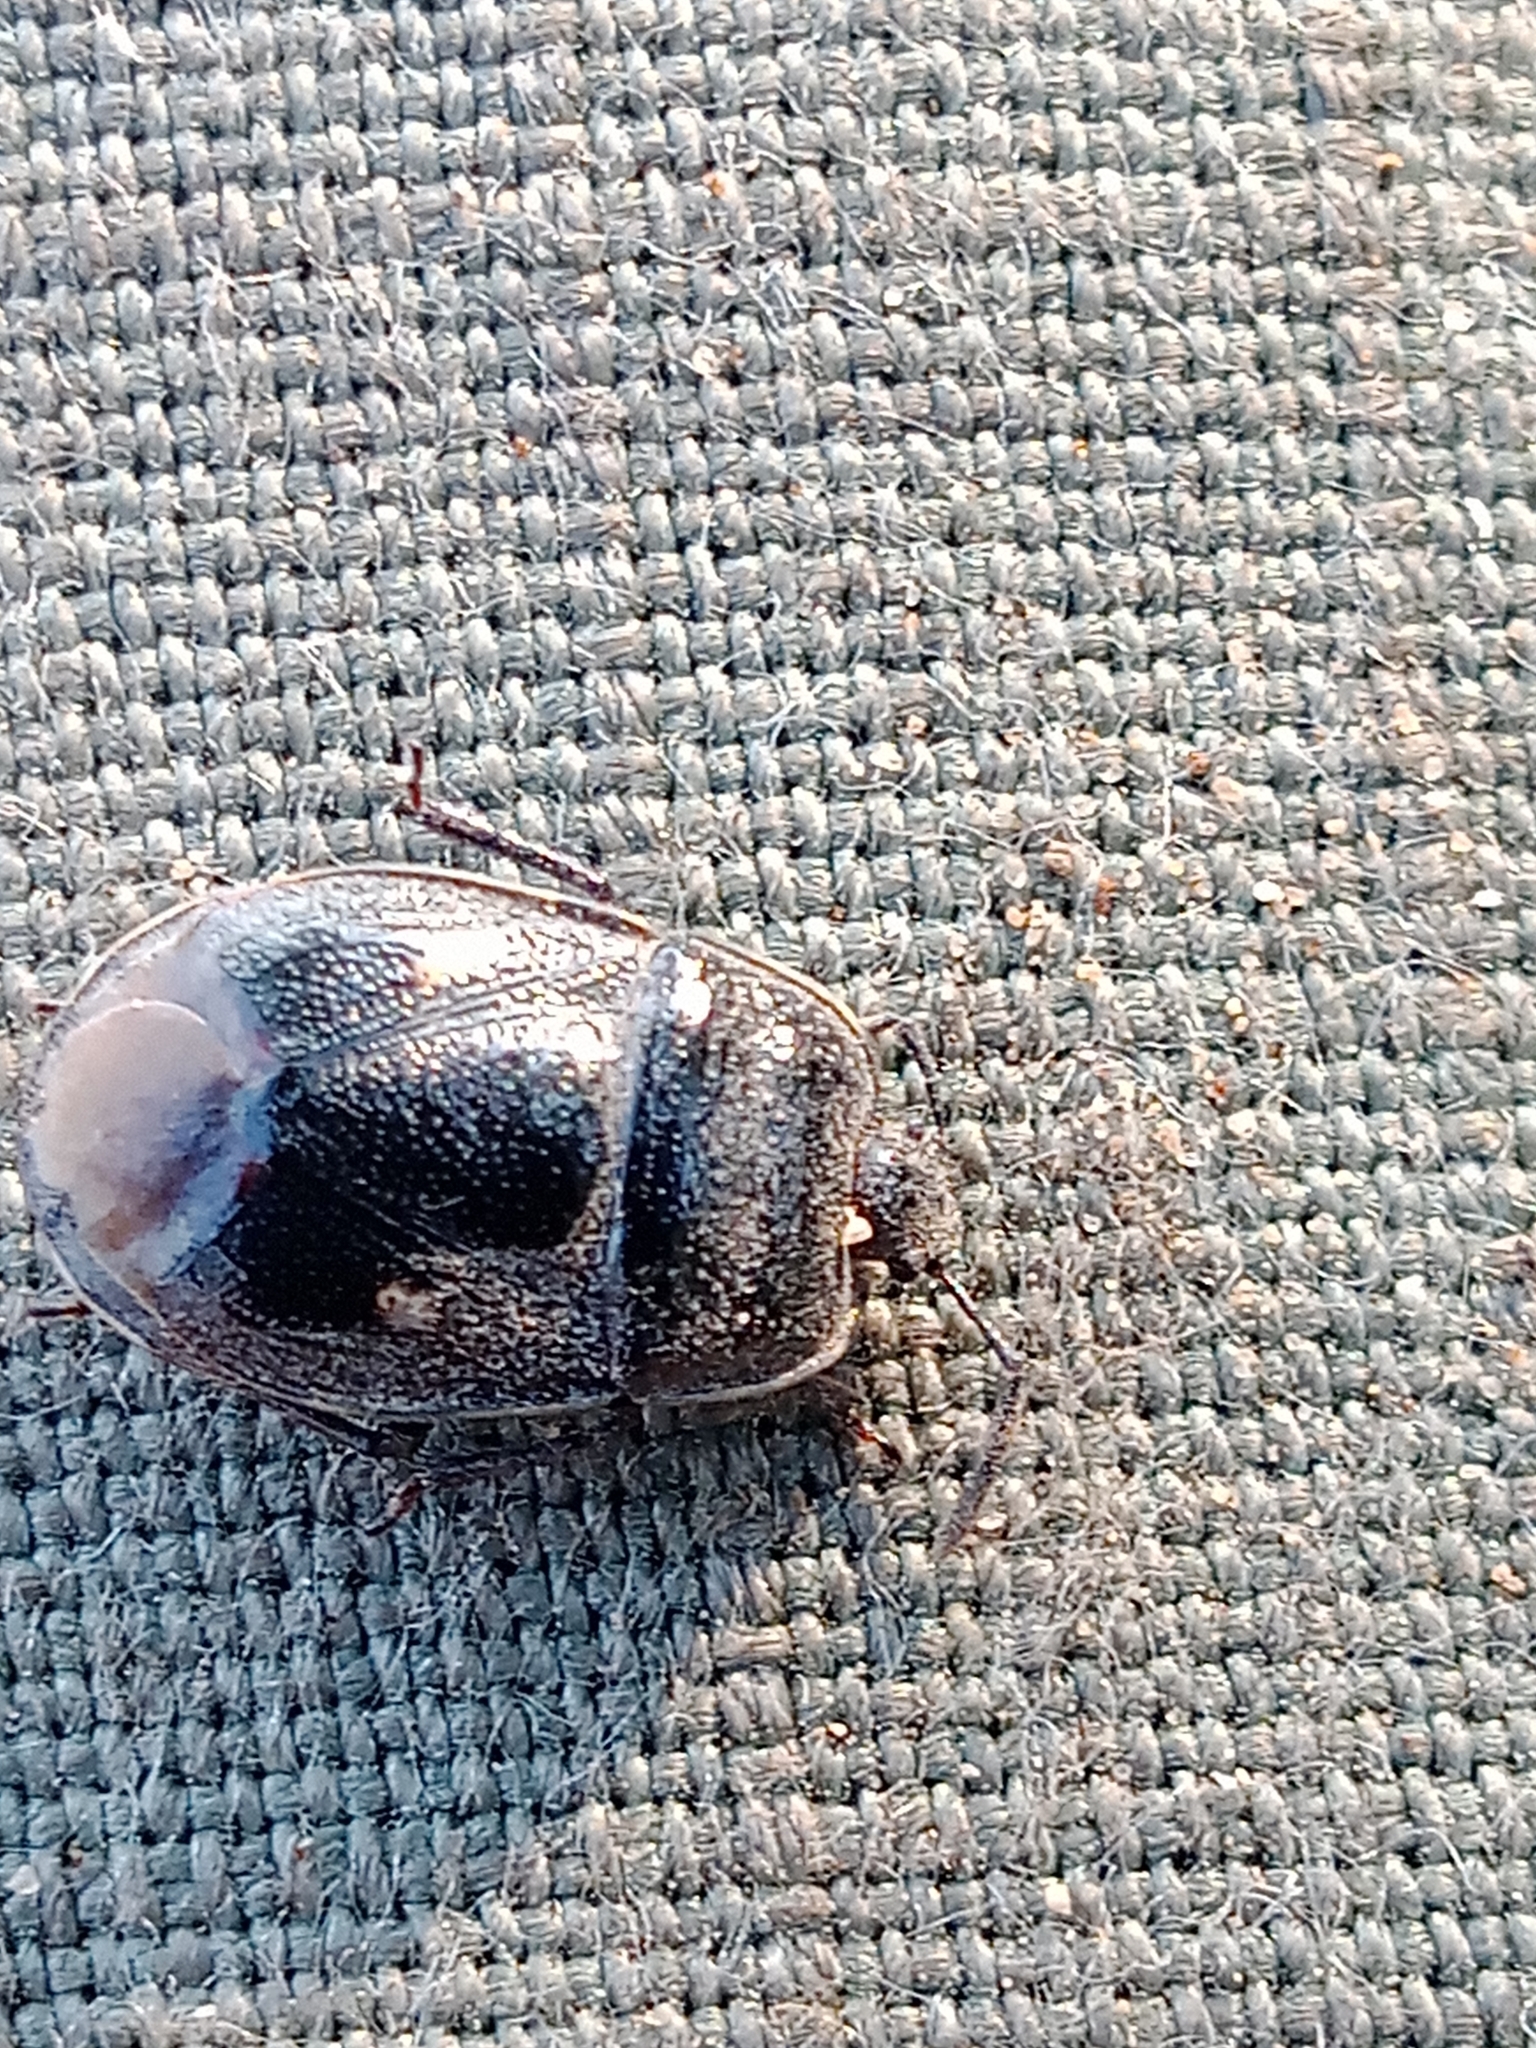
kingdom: Animalia
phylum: Arthropoda
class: Insecta
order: Hemiptera
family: Cydnidae
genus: Adomerus
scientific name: Adomerus biguttatus
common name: Cow wheat shieldbug
